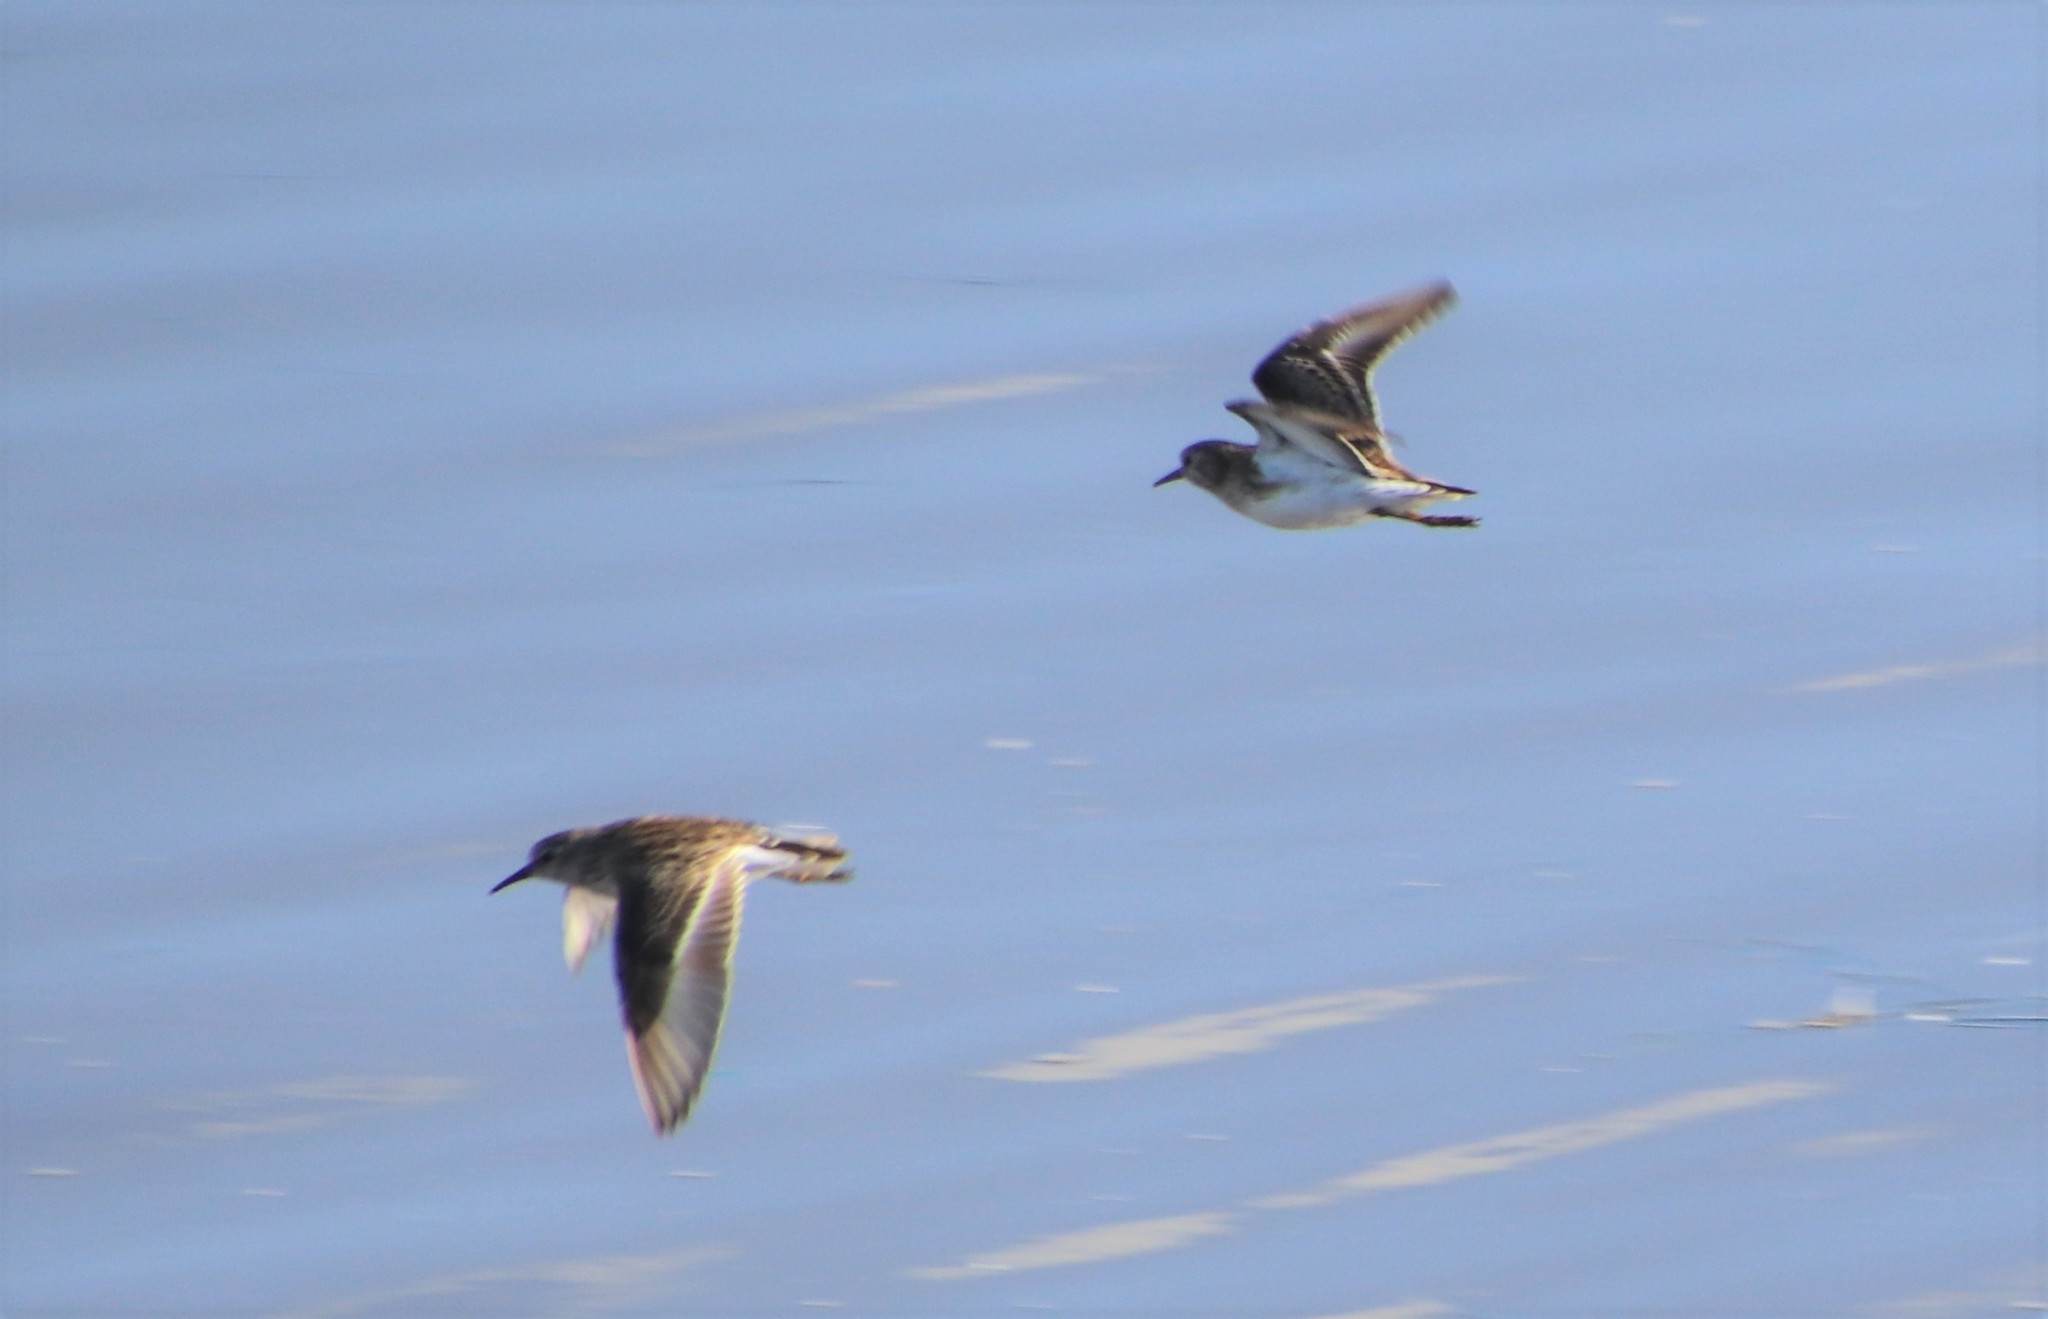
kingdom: Animalia
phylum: Chordata
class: Aves
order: Charadriiformes
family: Scolopacidae
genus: Calidris
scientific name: Calidris minutilla
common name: Least sandpiper
